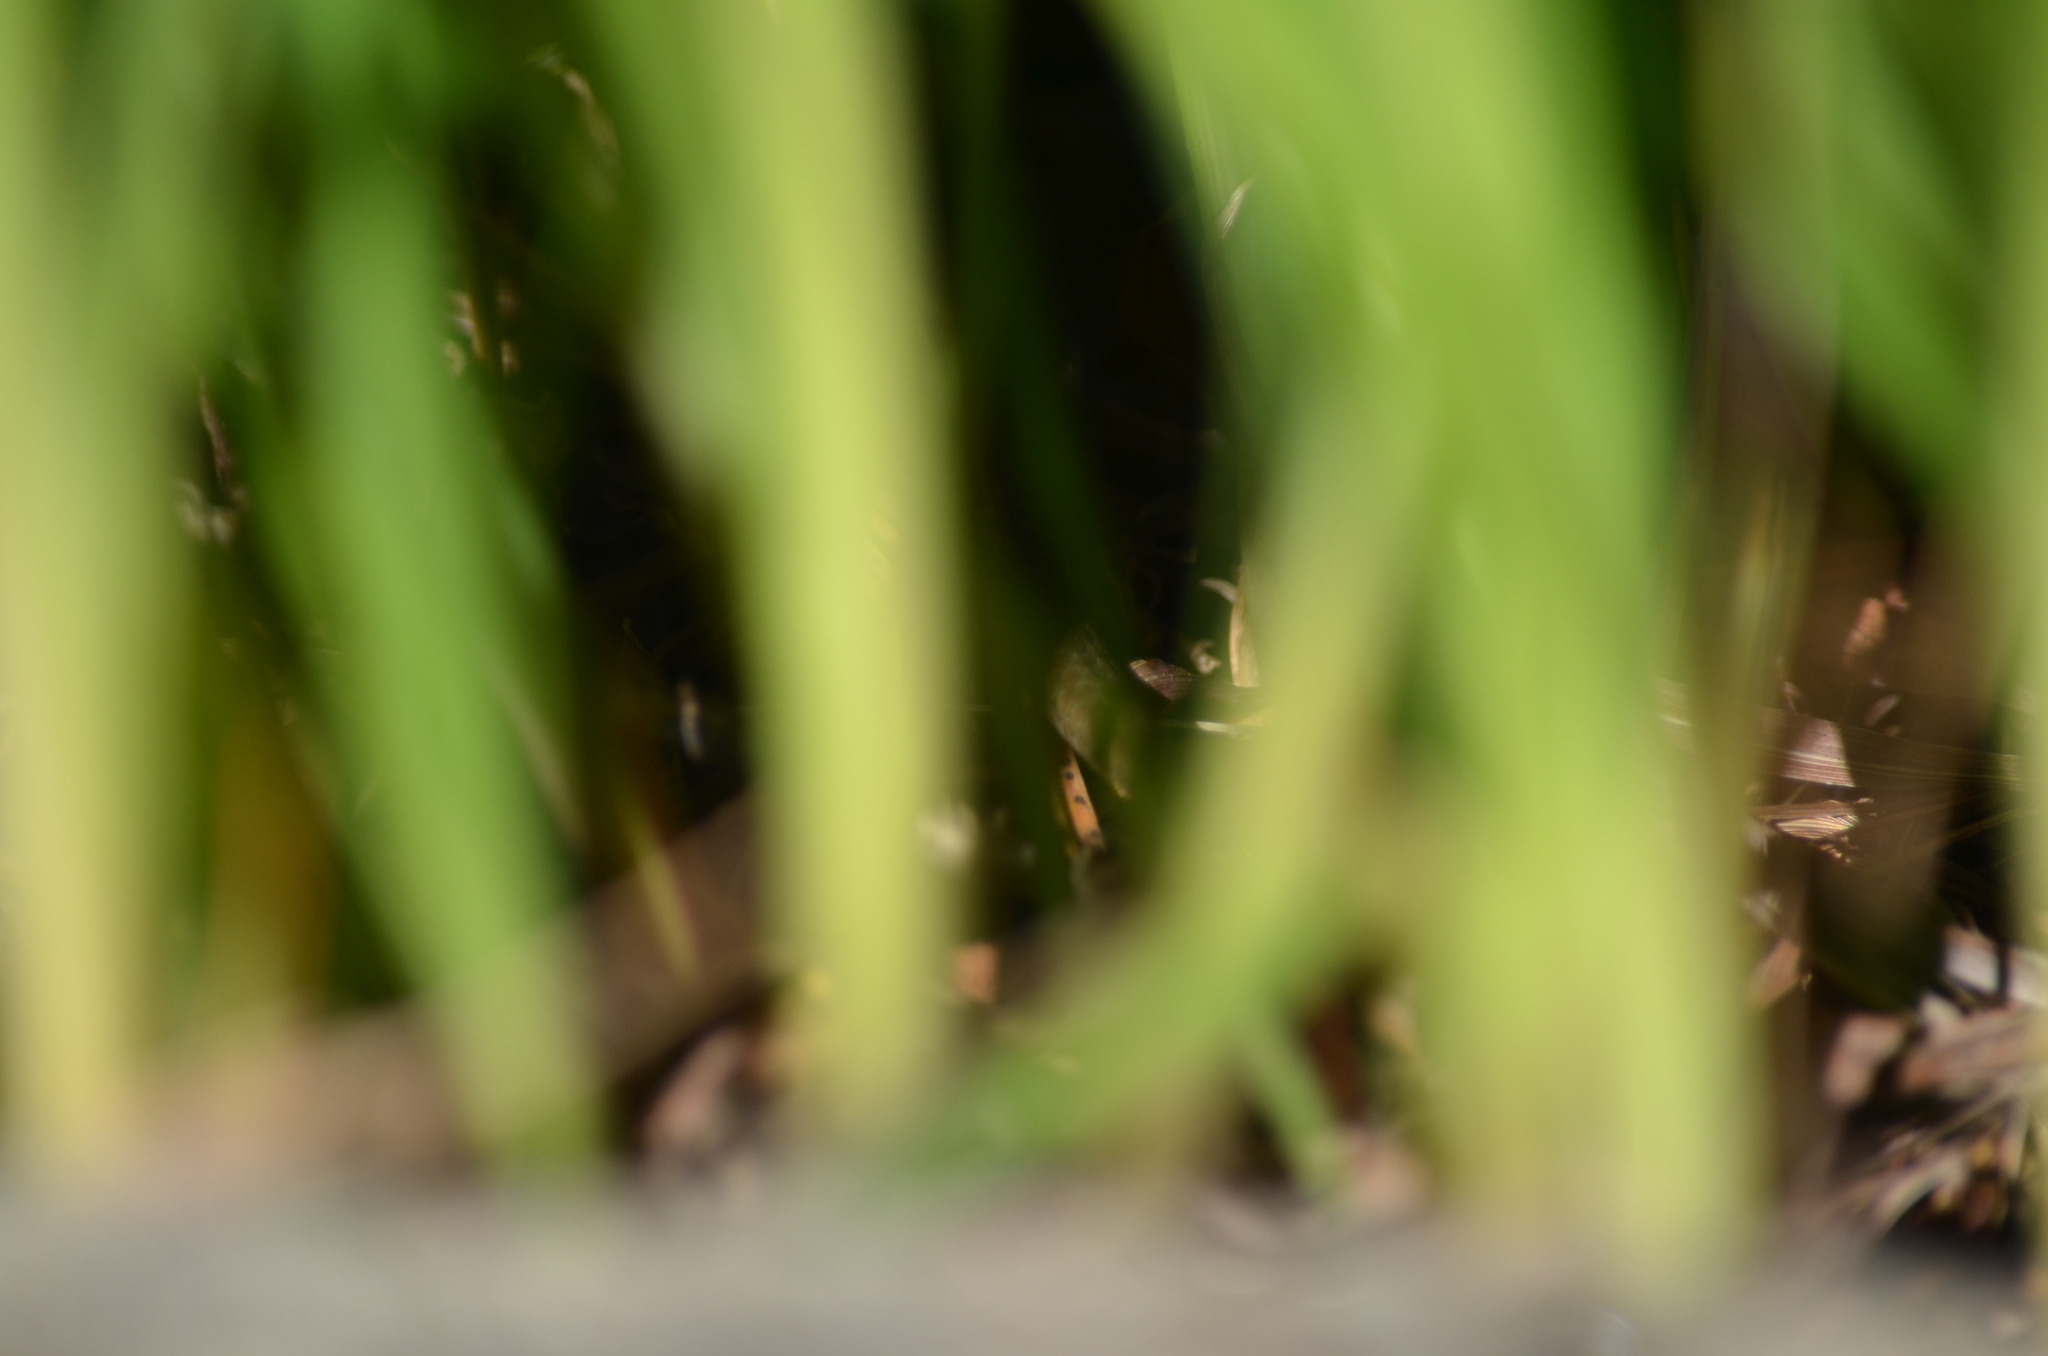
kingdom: Animalia
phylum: Chordata
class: Squamata
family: Colubridae
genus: Thamnophis
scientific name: Thamnophis ordinoides
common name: Northwestern garter snake
